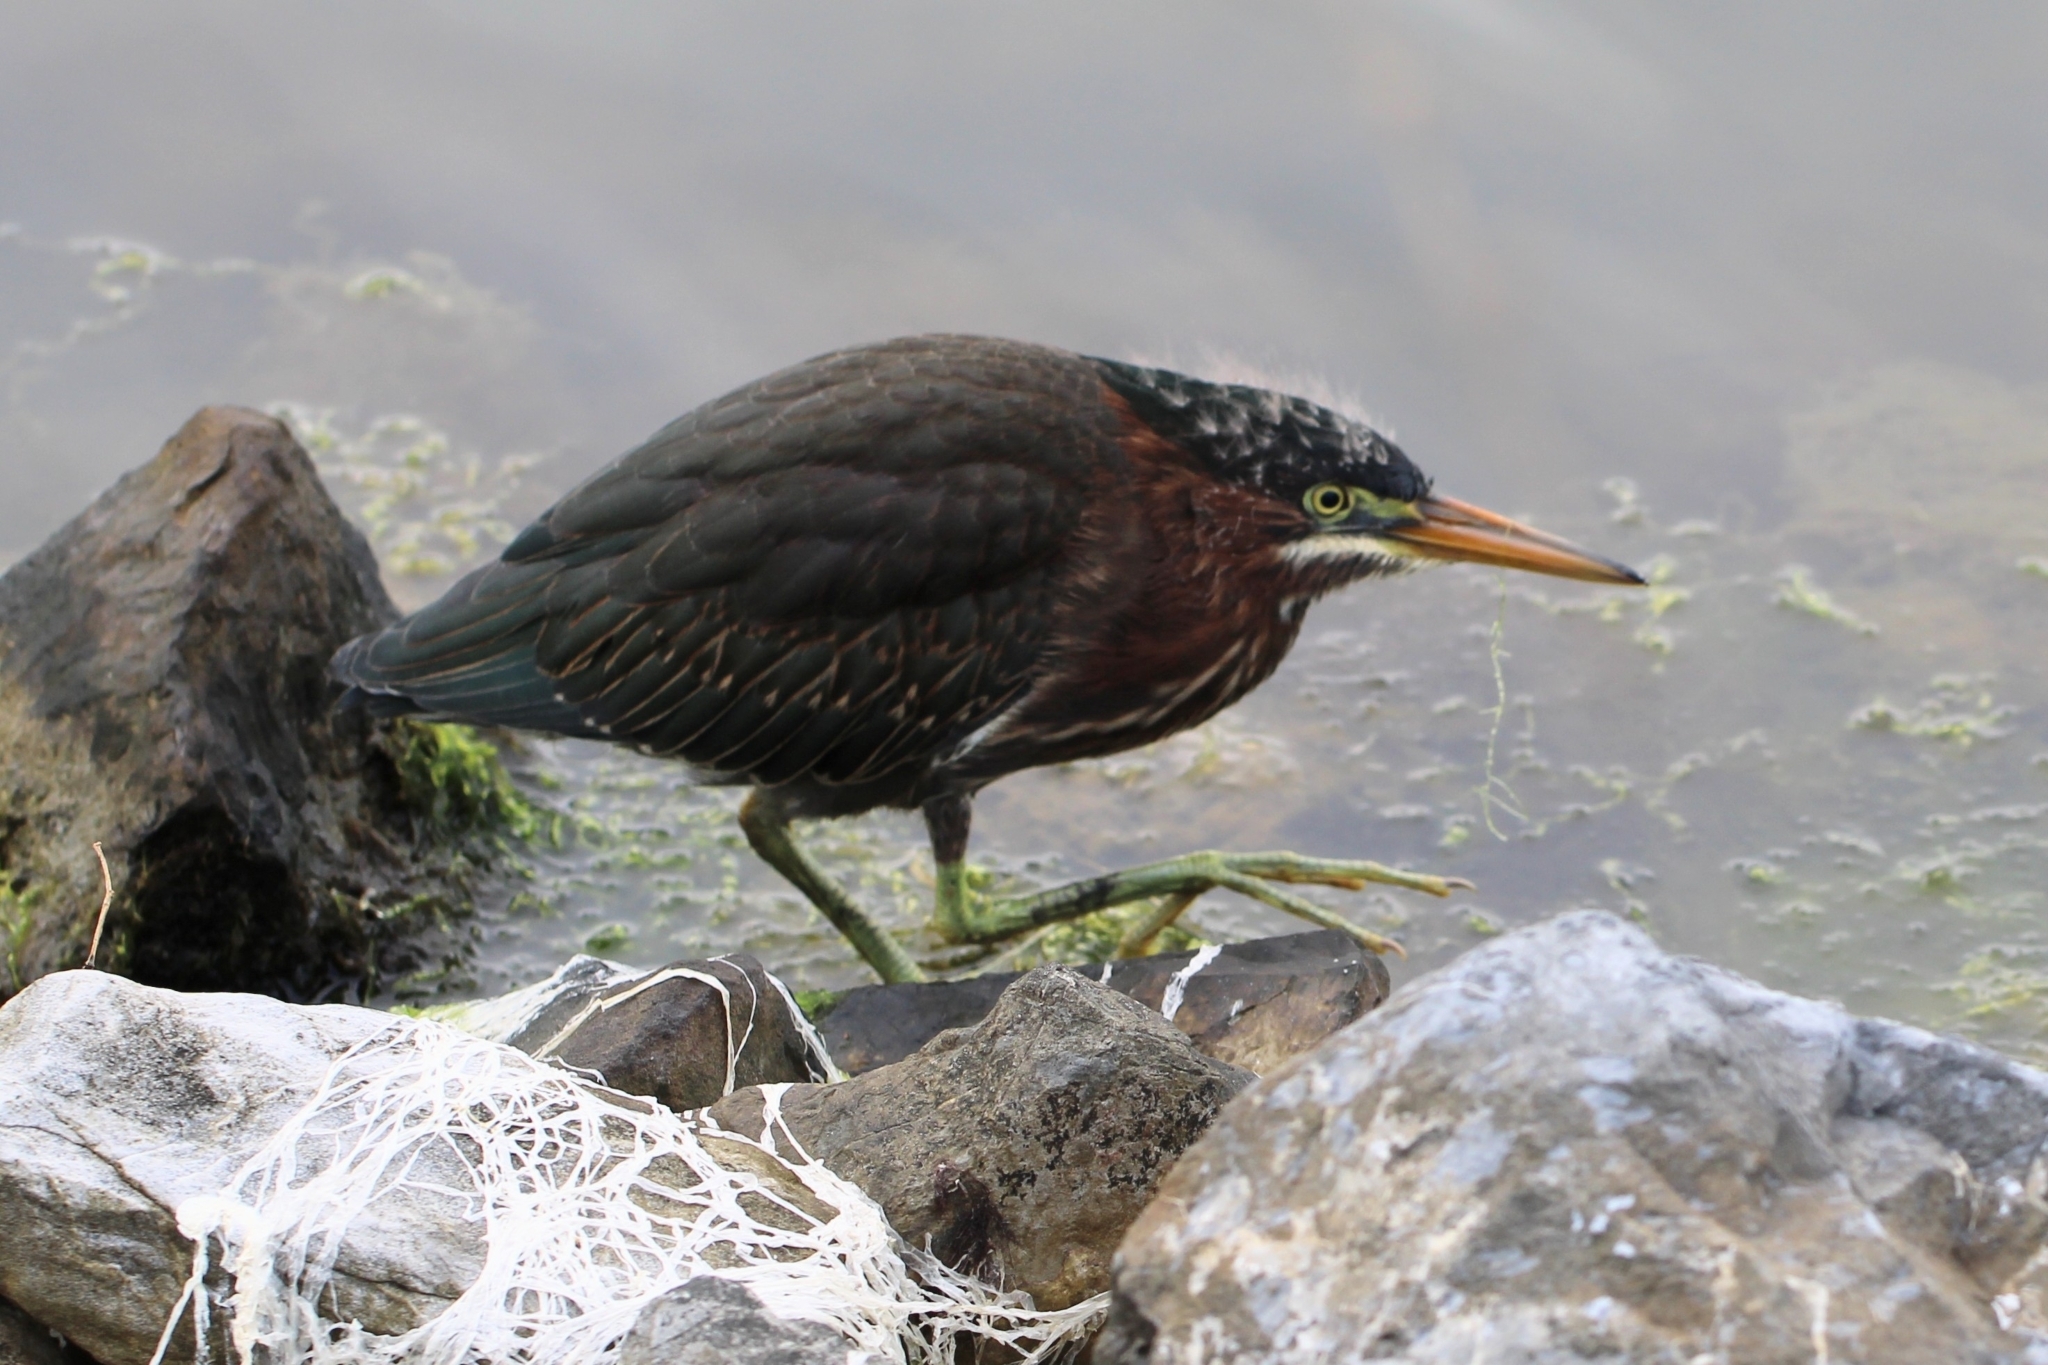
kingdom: Animalia
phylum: Chordata
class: Aves
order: Pelecaniformes
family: Ardeidae
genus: Butorides
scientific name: Butorides virescens
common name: Green heron
